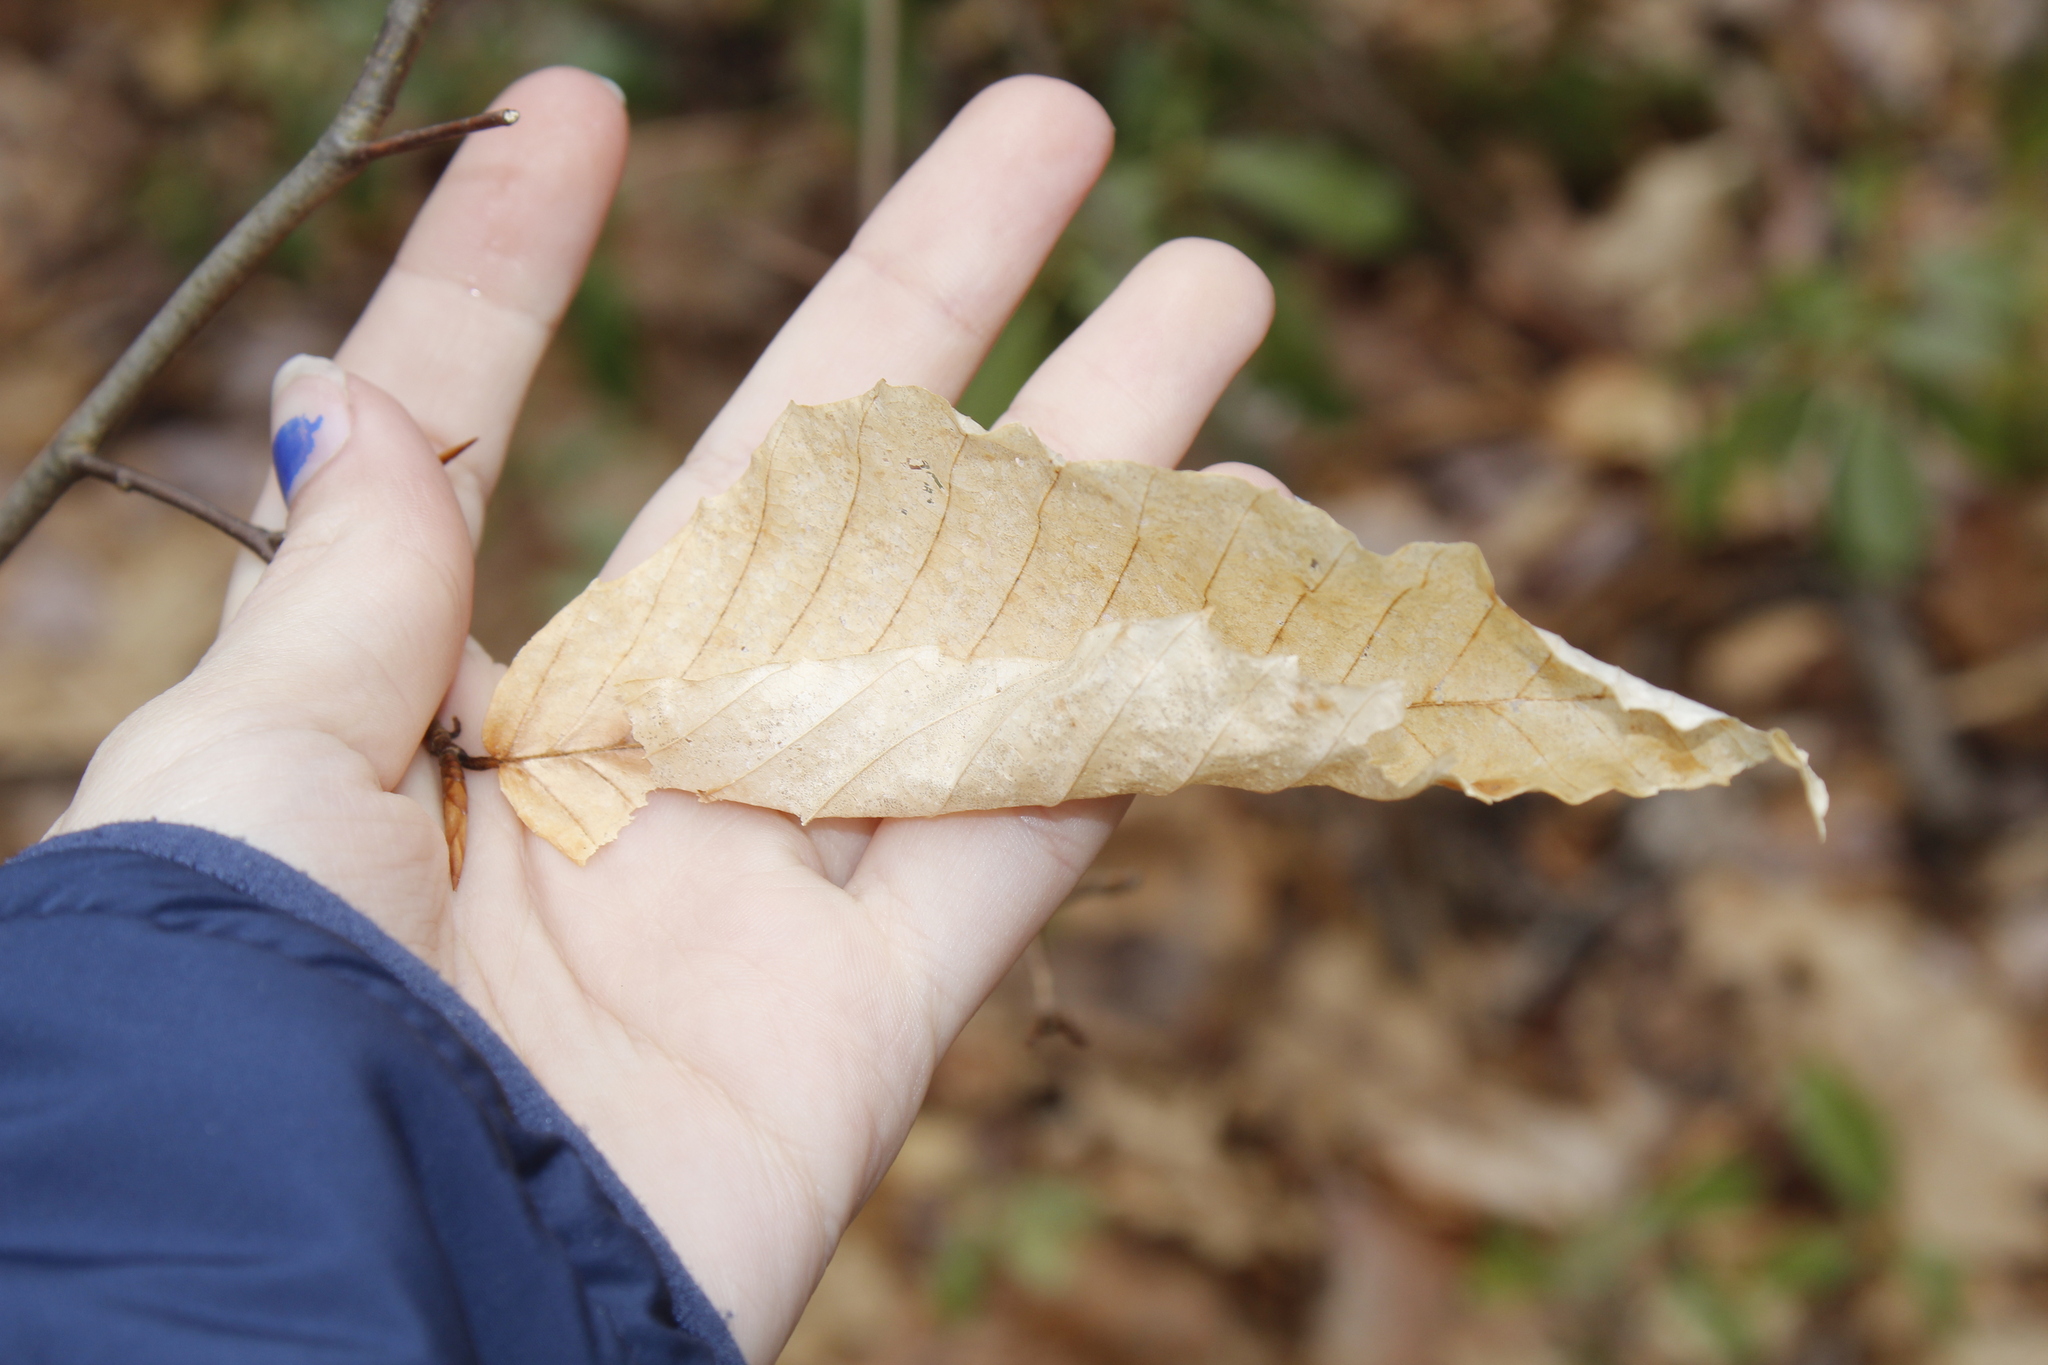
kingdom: Plantae
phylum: Tracheophyta
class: Magnoliopsida
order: Fagales
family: Fagaceae
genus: Fagus
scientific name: Fagus grandifolia
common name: American beech
